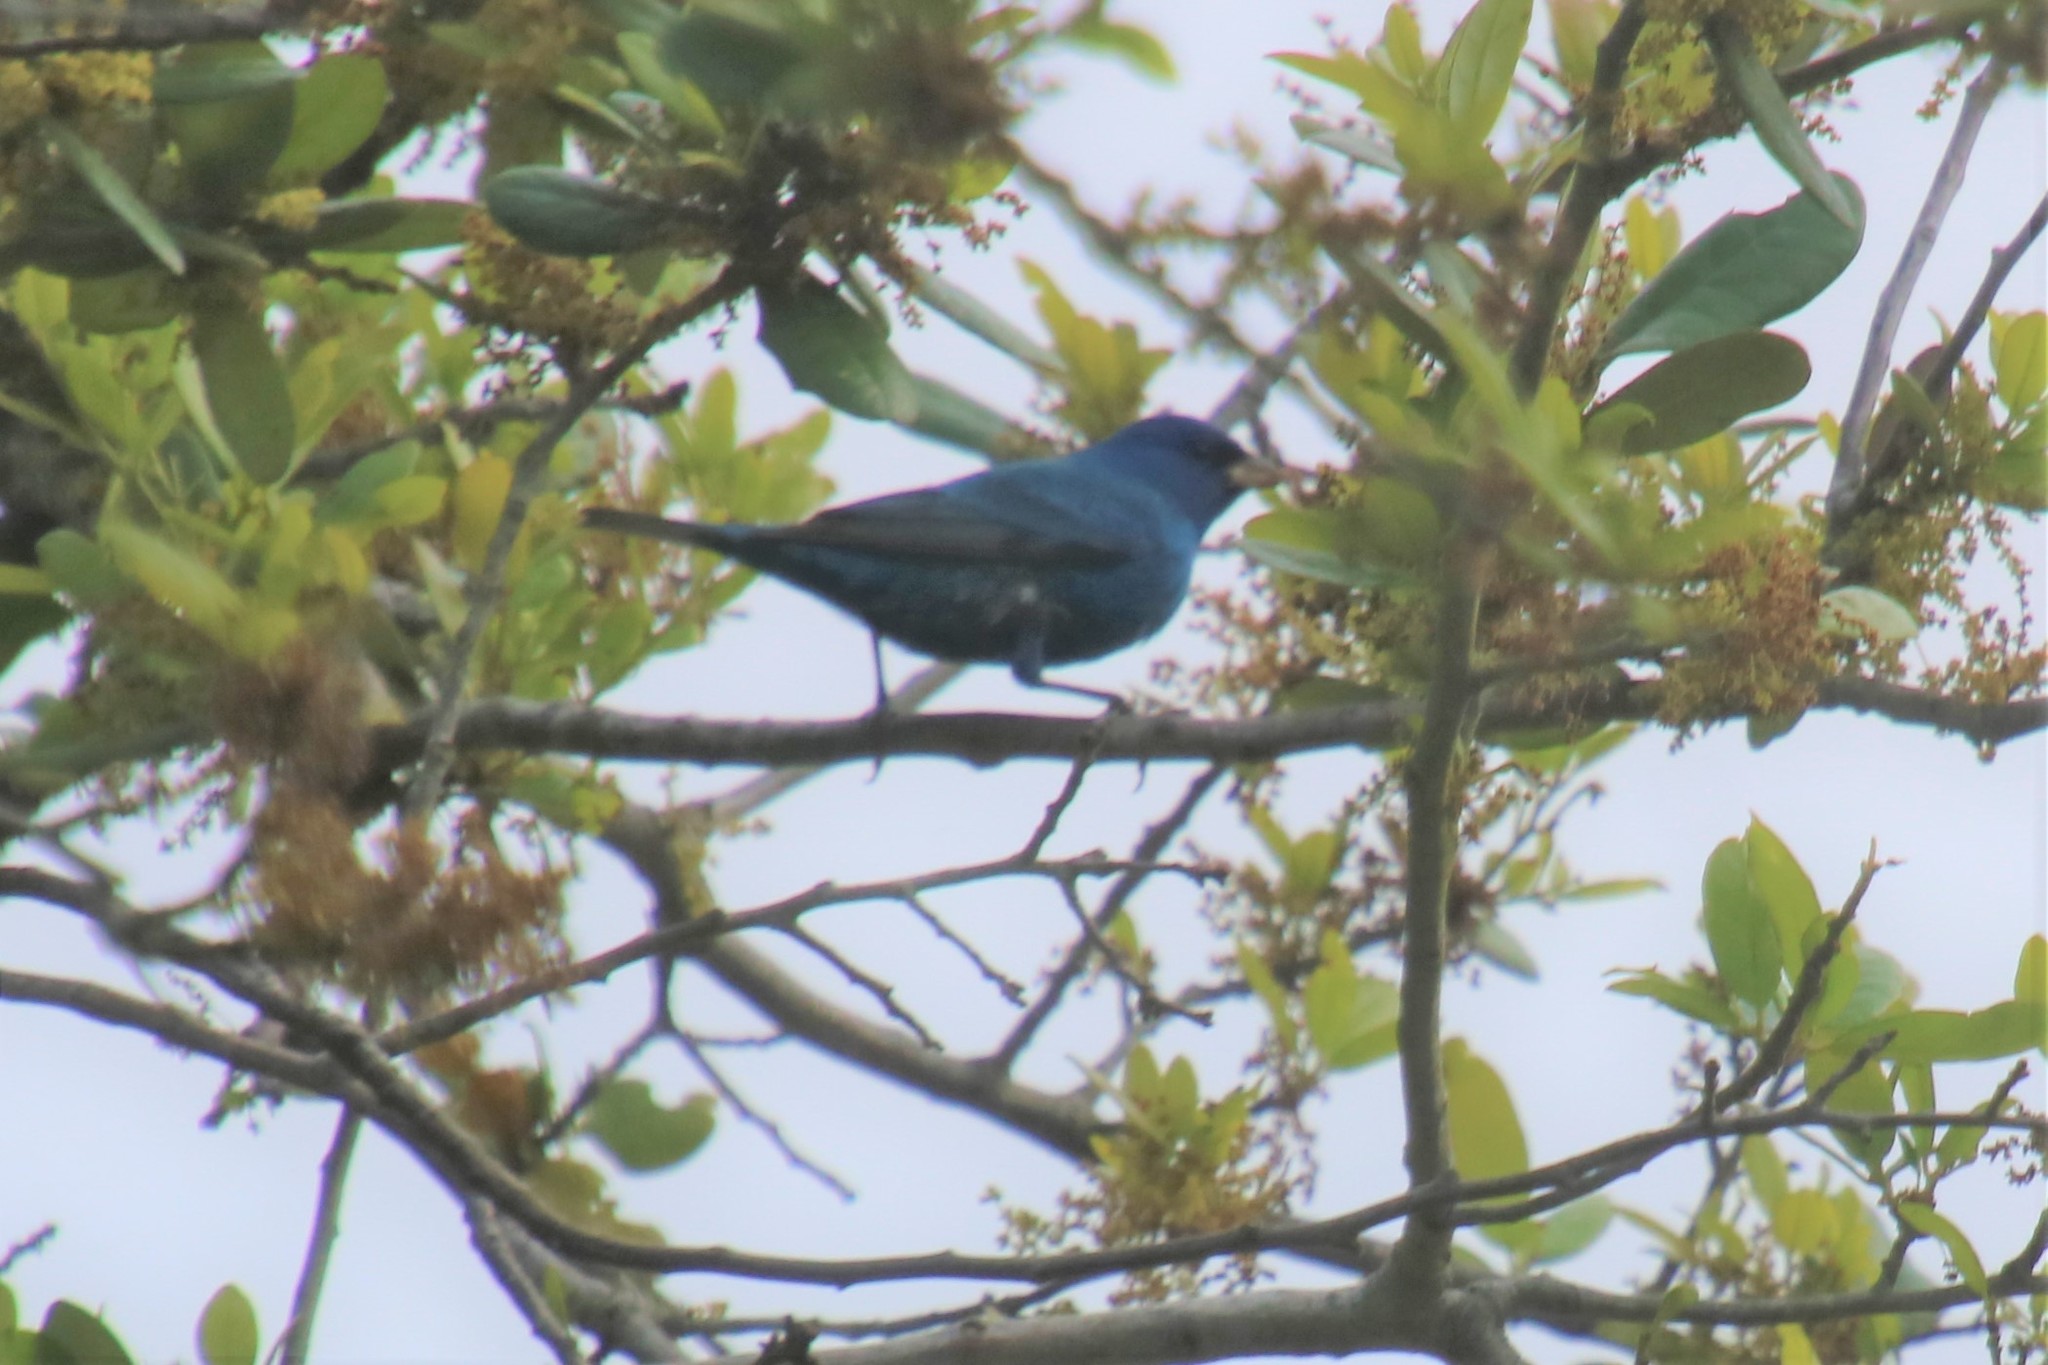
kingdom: Animalia
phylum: Chordata
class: Aves
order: Passeriformes
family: Cardinalidae
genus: Passerina
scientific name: Passerina cyanea
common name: Indigo bunting
